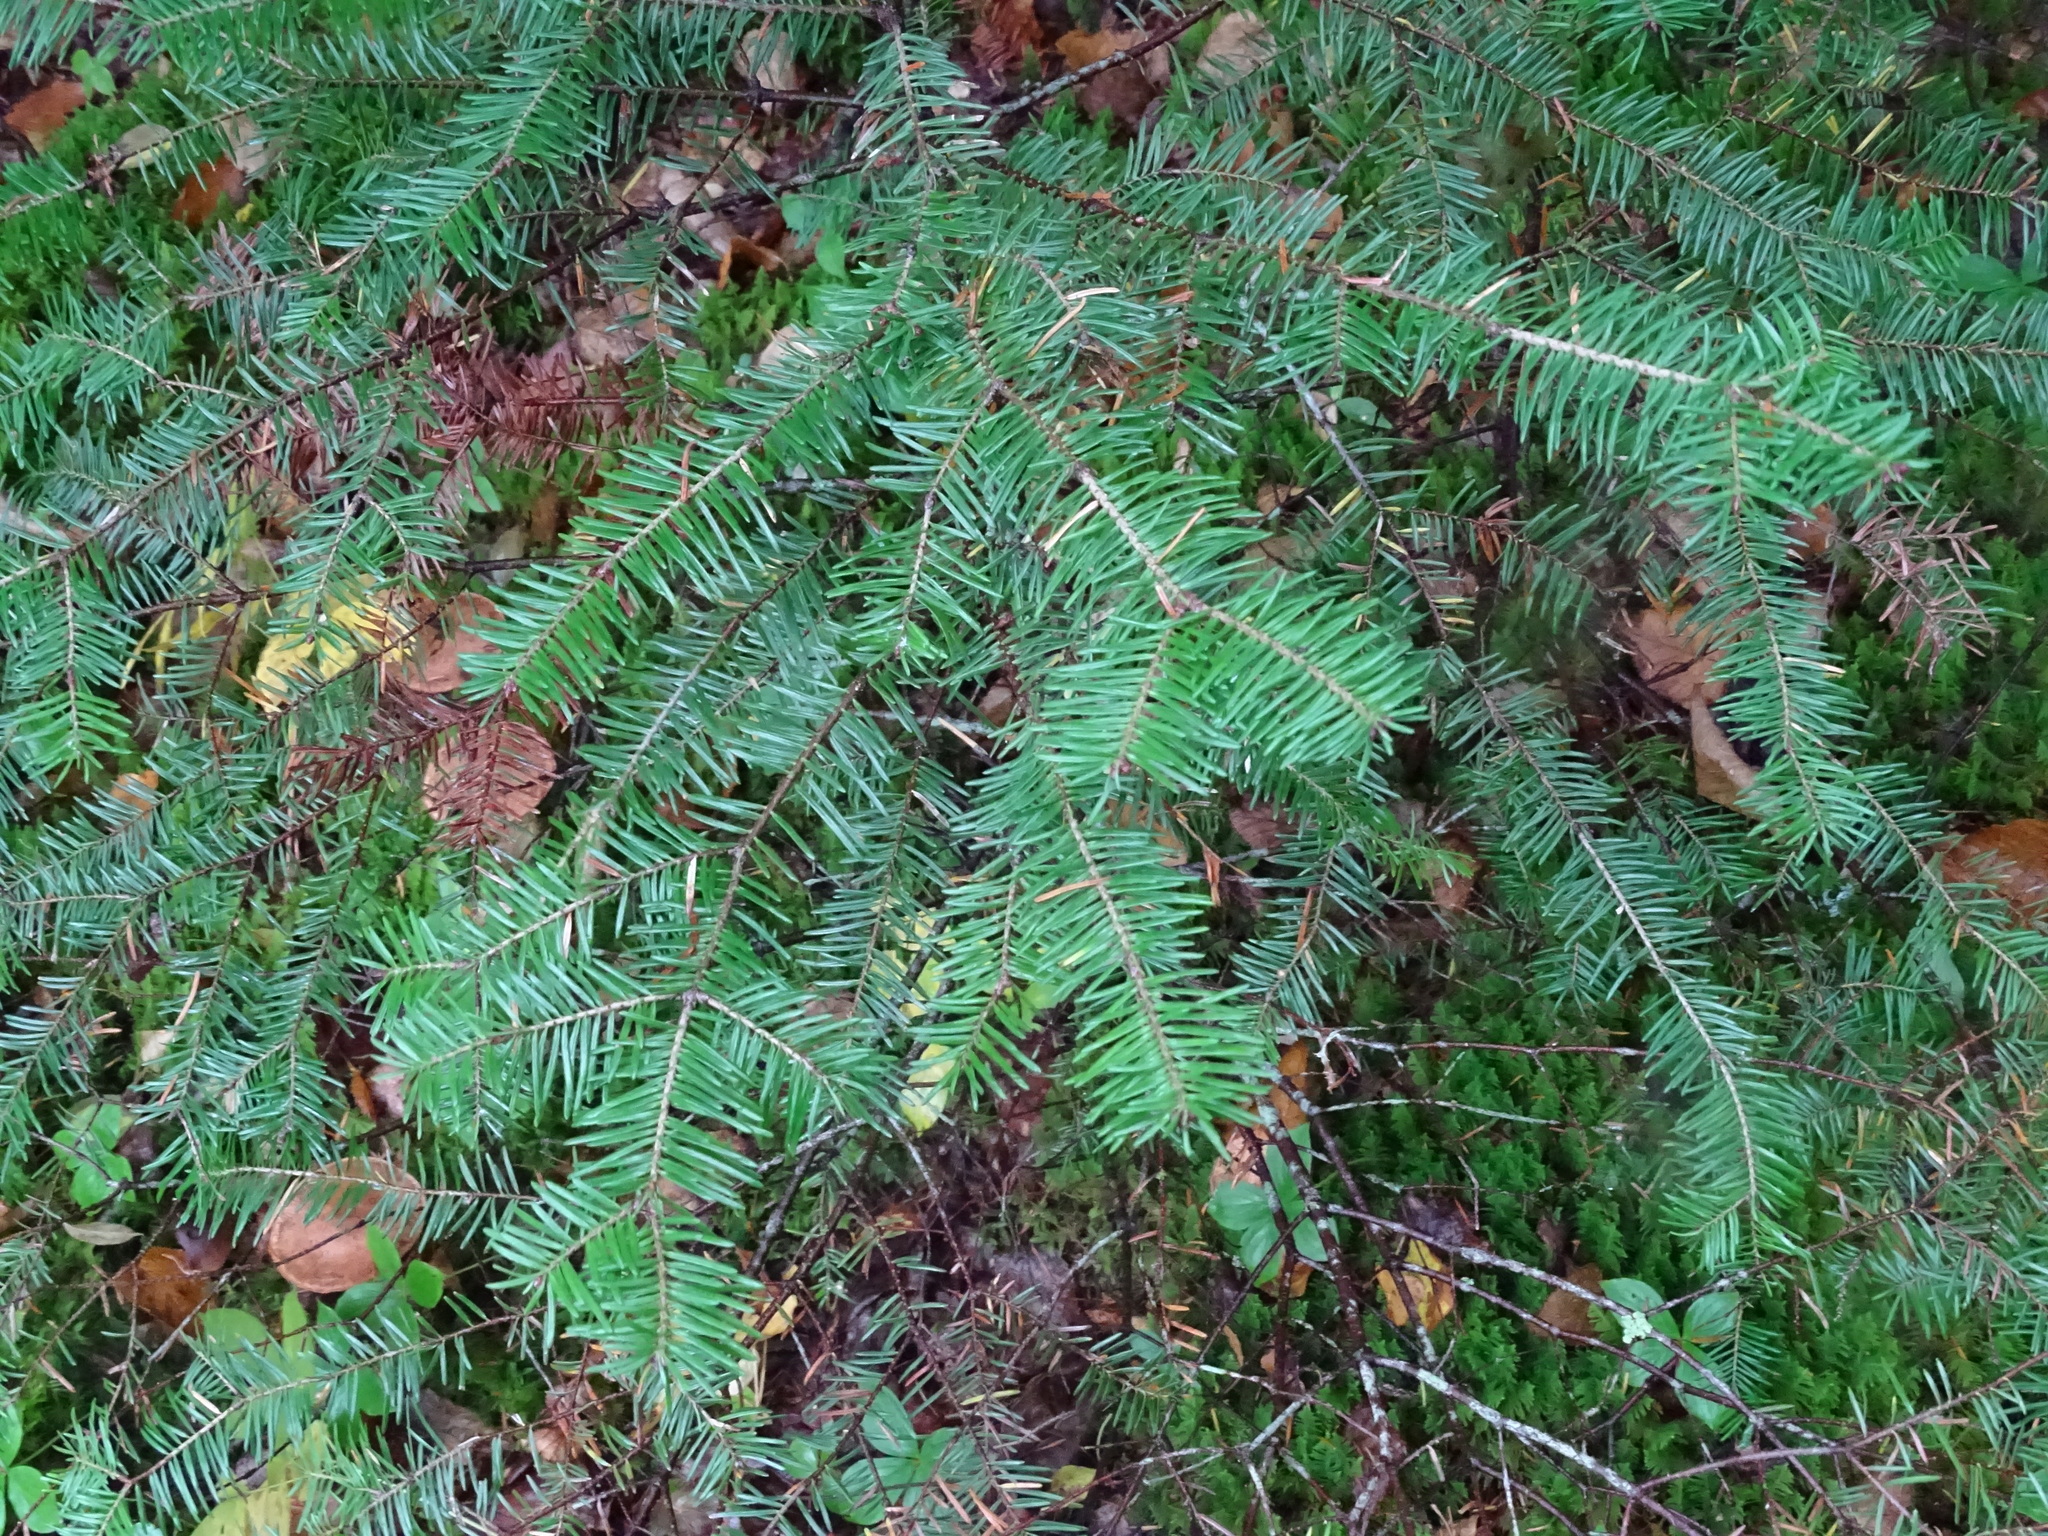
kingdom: Plantae
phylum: Tracheophyta
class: Pinopsida
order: Pinales
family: Pinaceae
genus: Abies
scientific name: Abies balsamea
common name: Balsam fir
